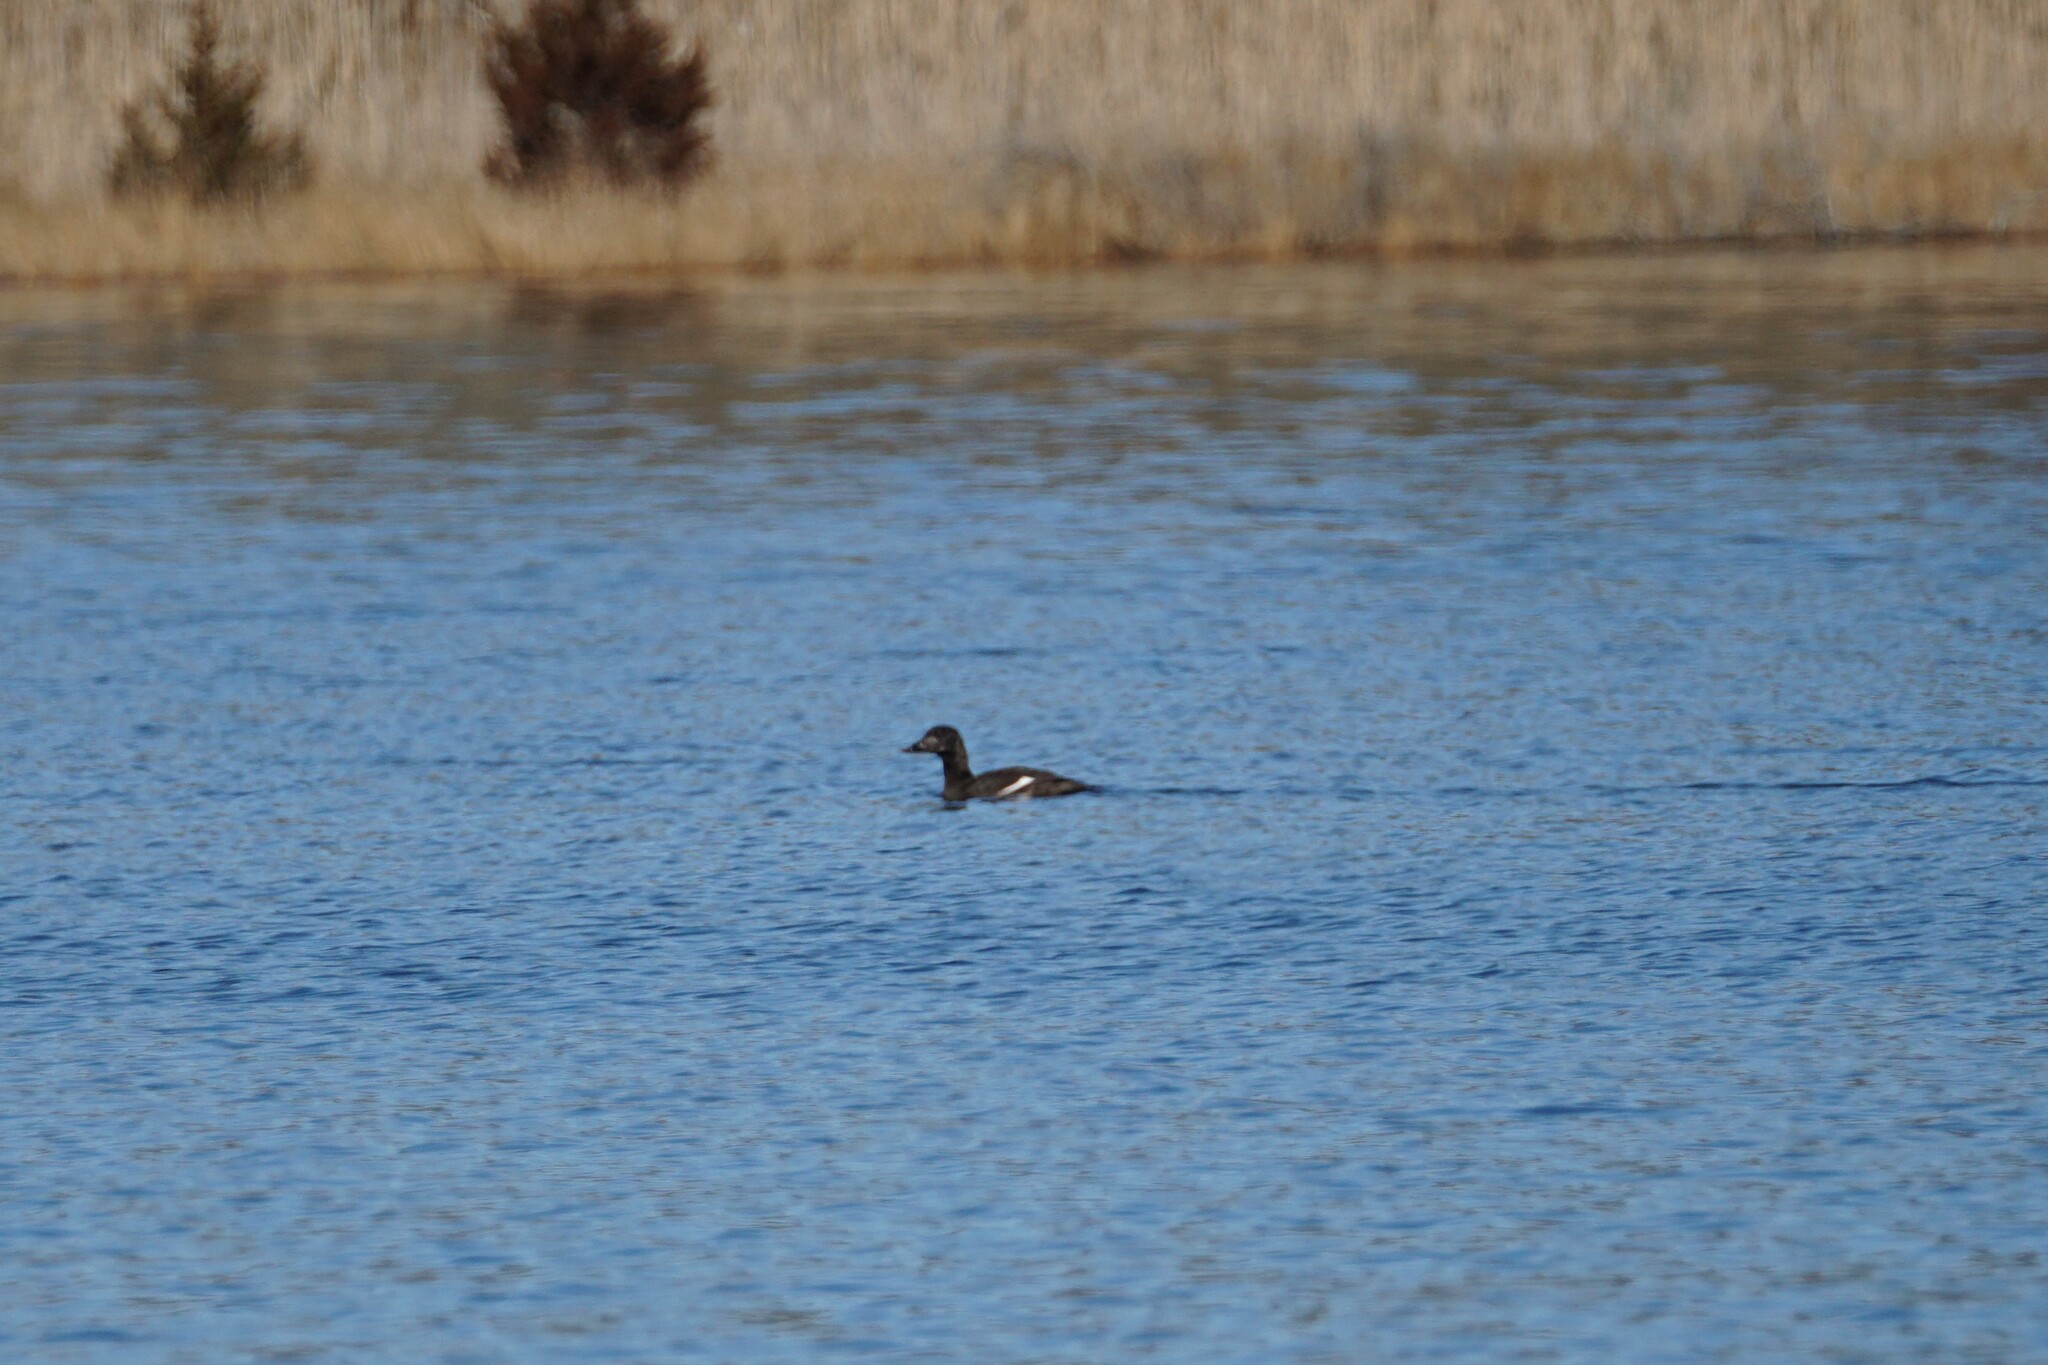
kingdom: Animalia
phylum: Chordata
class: Aves
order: Anseriformes
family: Anatidae
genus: Melanitta
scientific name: Melanitta deglandi
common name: White-winged scoter
